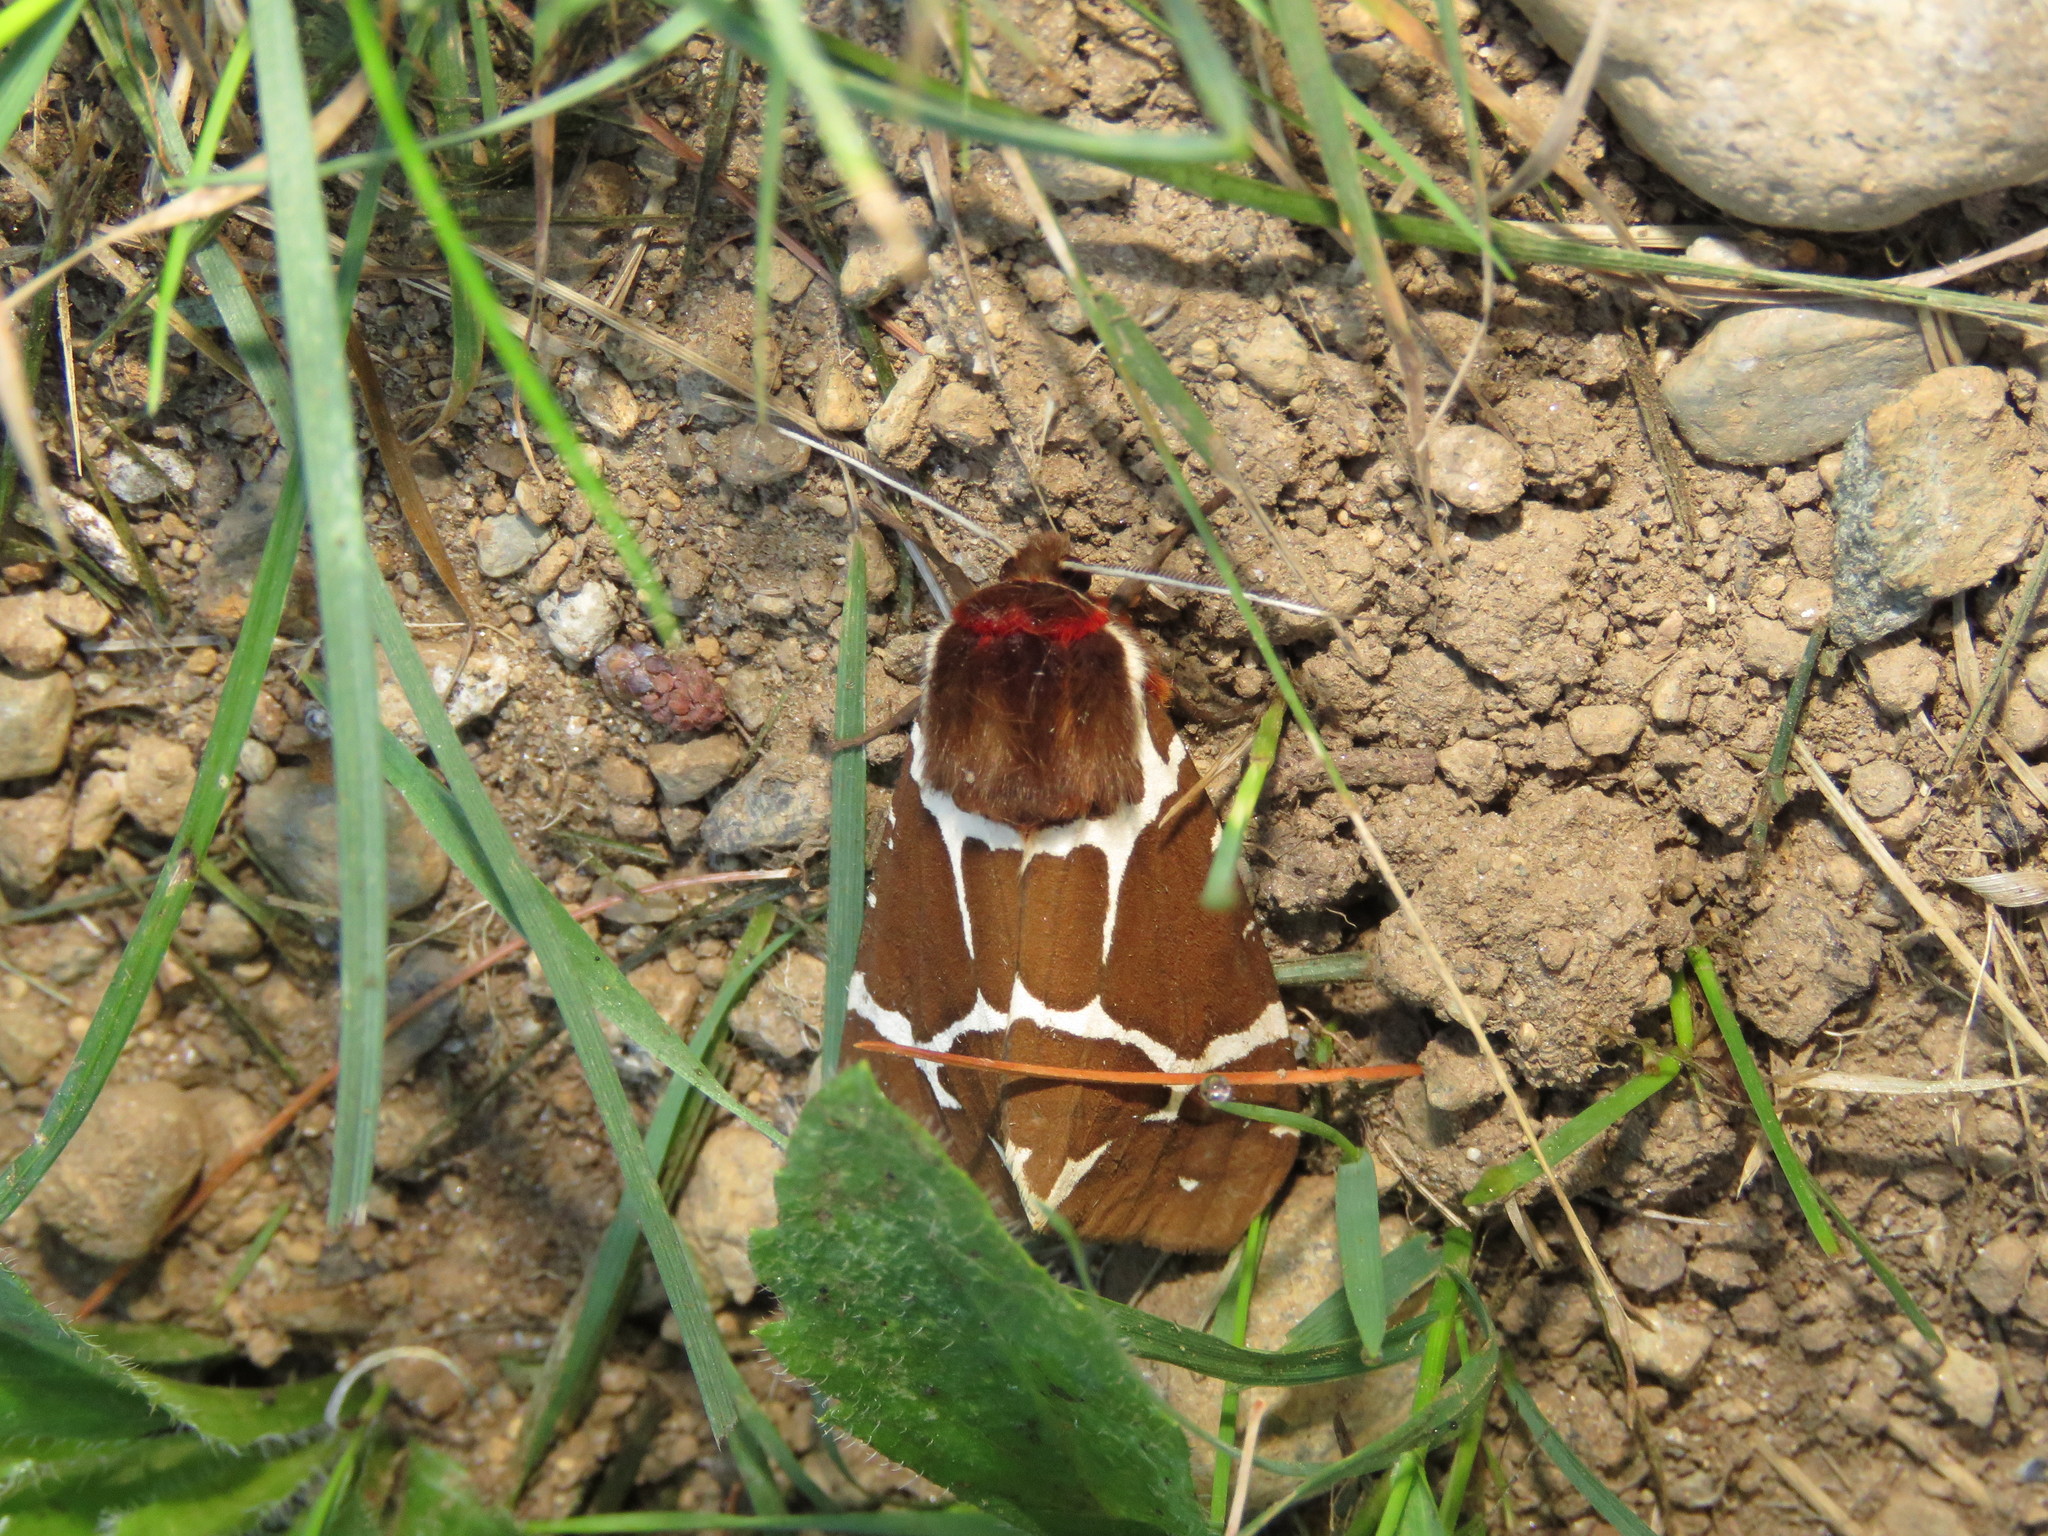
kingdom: Animalia
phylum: Arthropoda
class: Insecta
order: Lepidoptera
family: Erebidae
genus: Arctia
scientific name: Arctia caja
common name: Garden tiger
